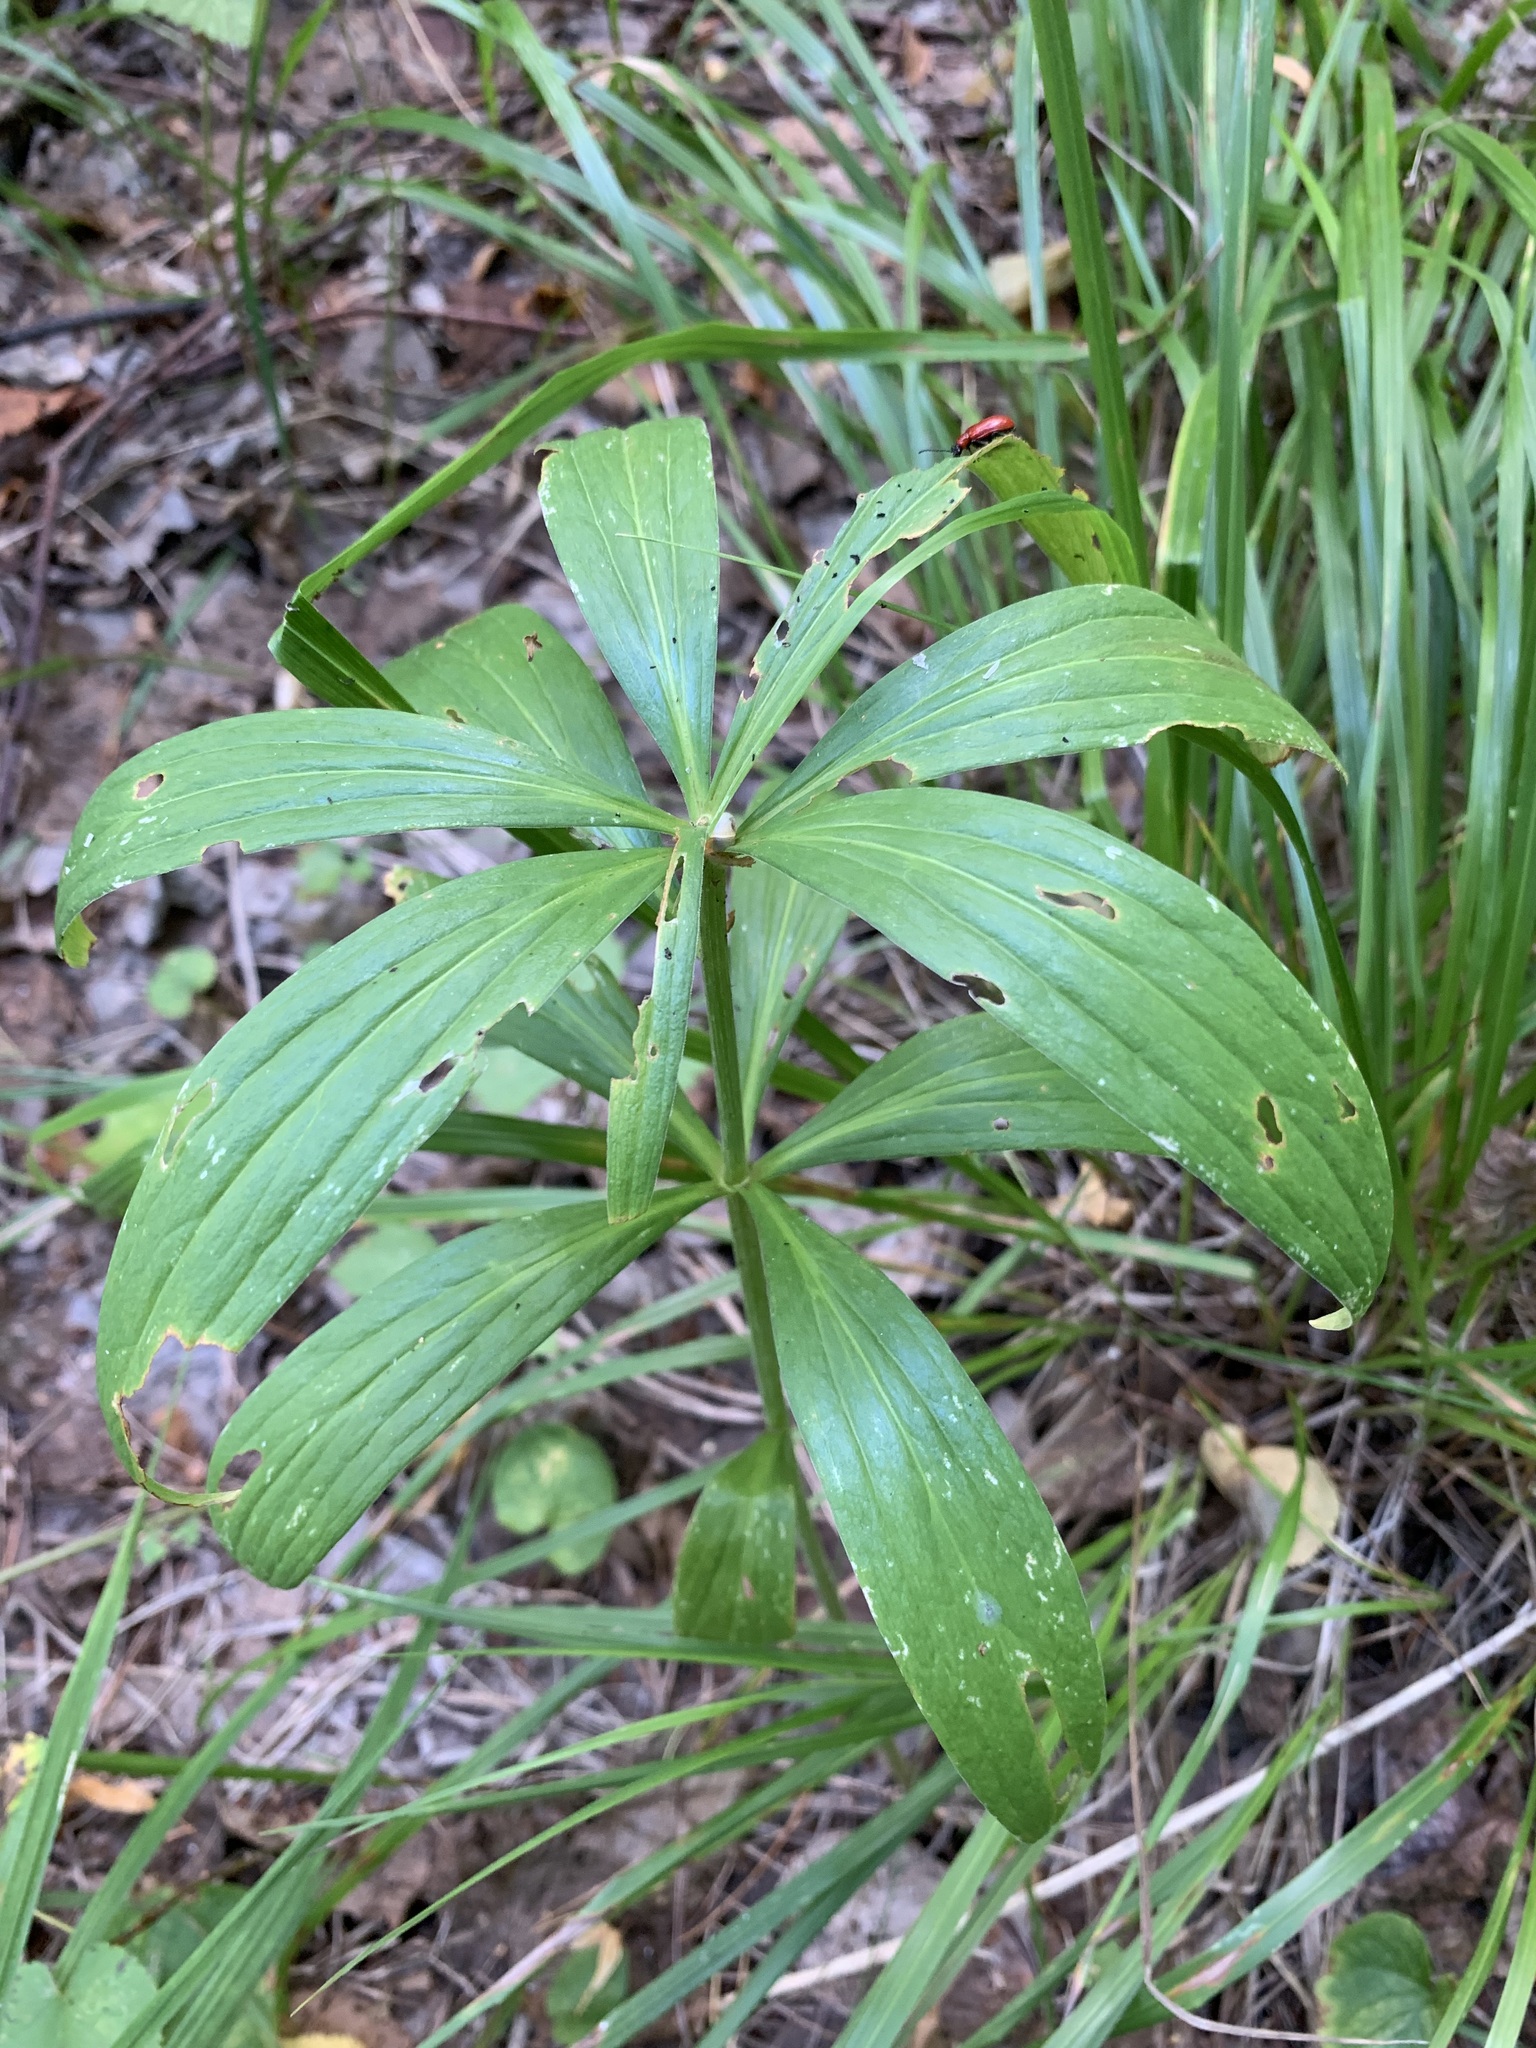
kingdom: Plantae
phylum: Tracheophyta
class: Liliopsida
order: Liliales
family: Liliaceae
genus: Lilium
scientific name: Lilium martagon
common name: Martagon lily
